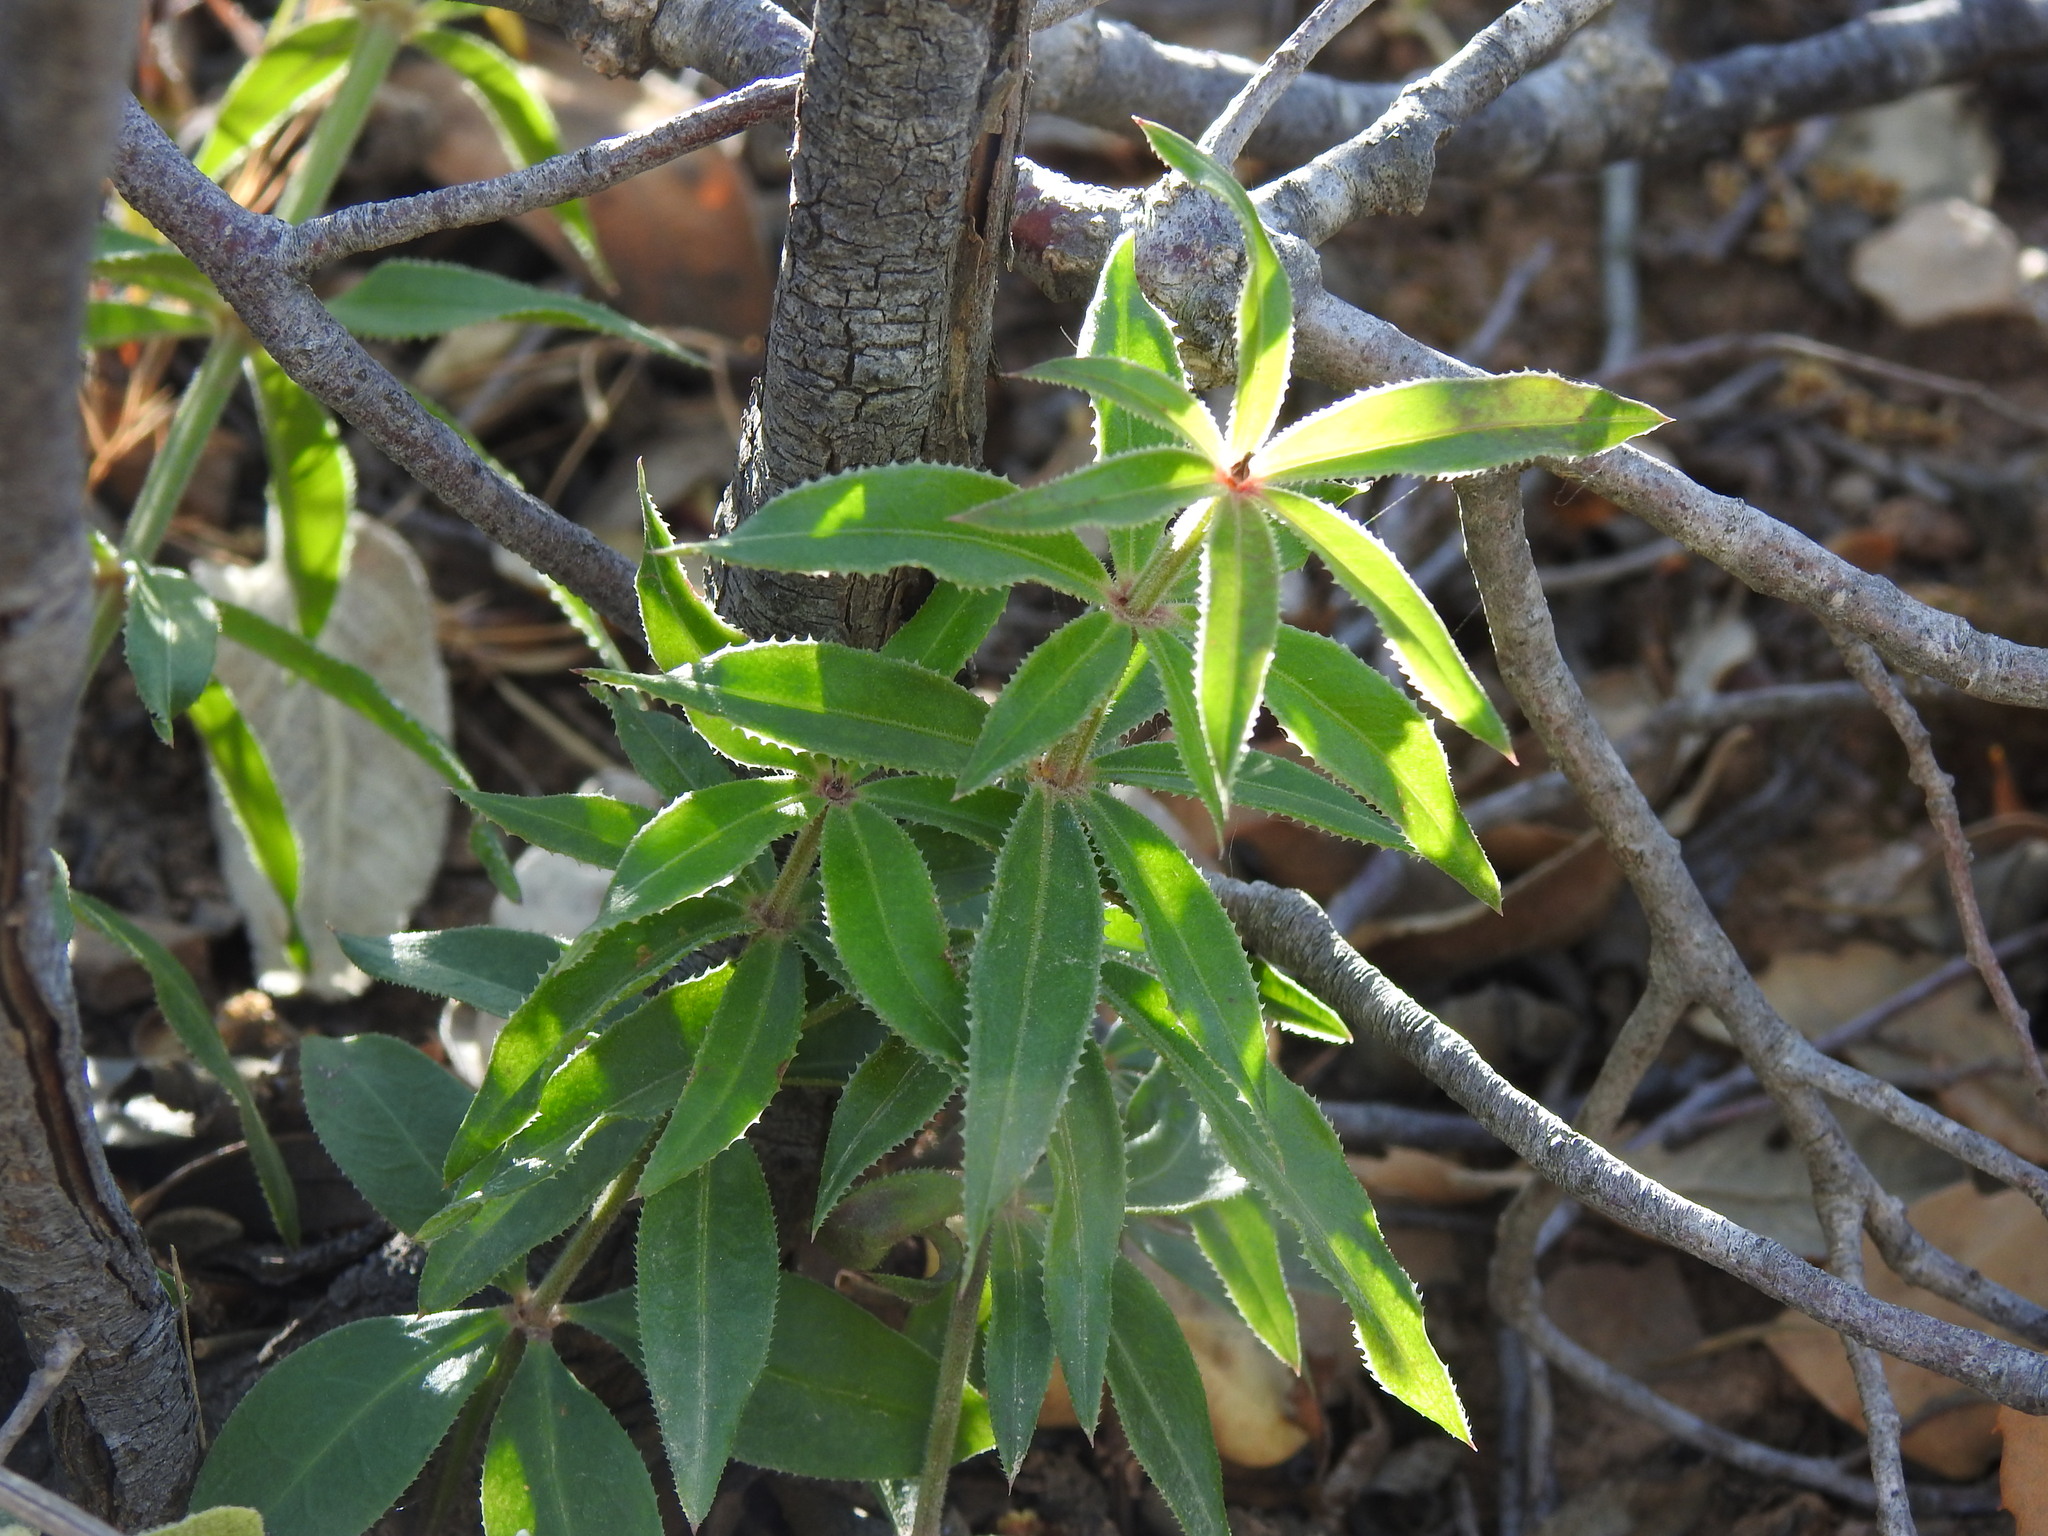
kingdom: Plantae
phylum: Tracheophyta
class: Magnoliopsida
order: Gentianales
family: Rubiaceae
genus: Rubia
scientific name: Rubia peregrina
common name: Wild madder
